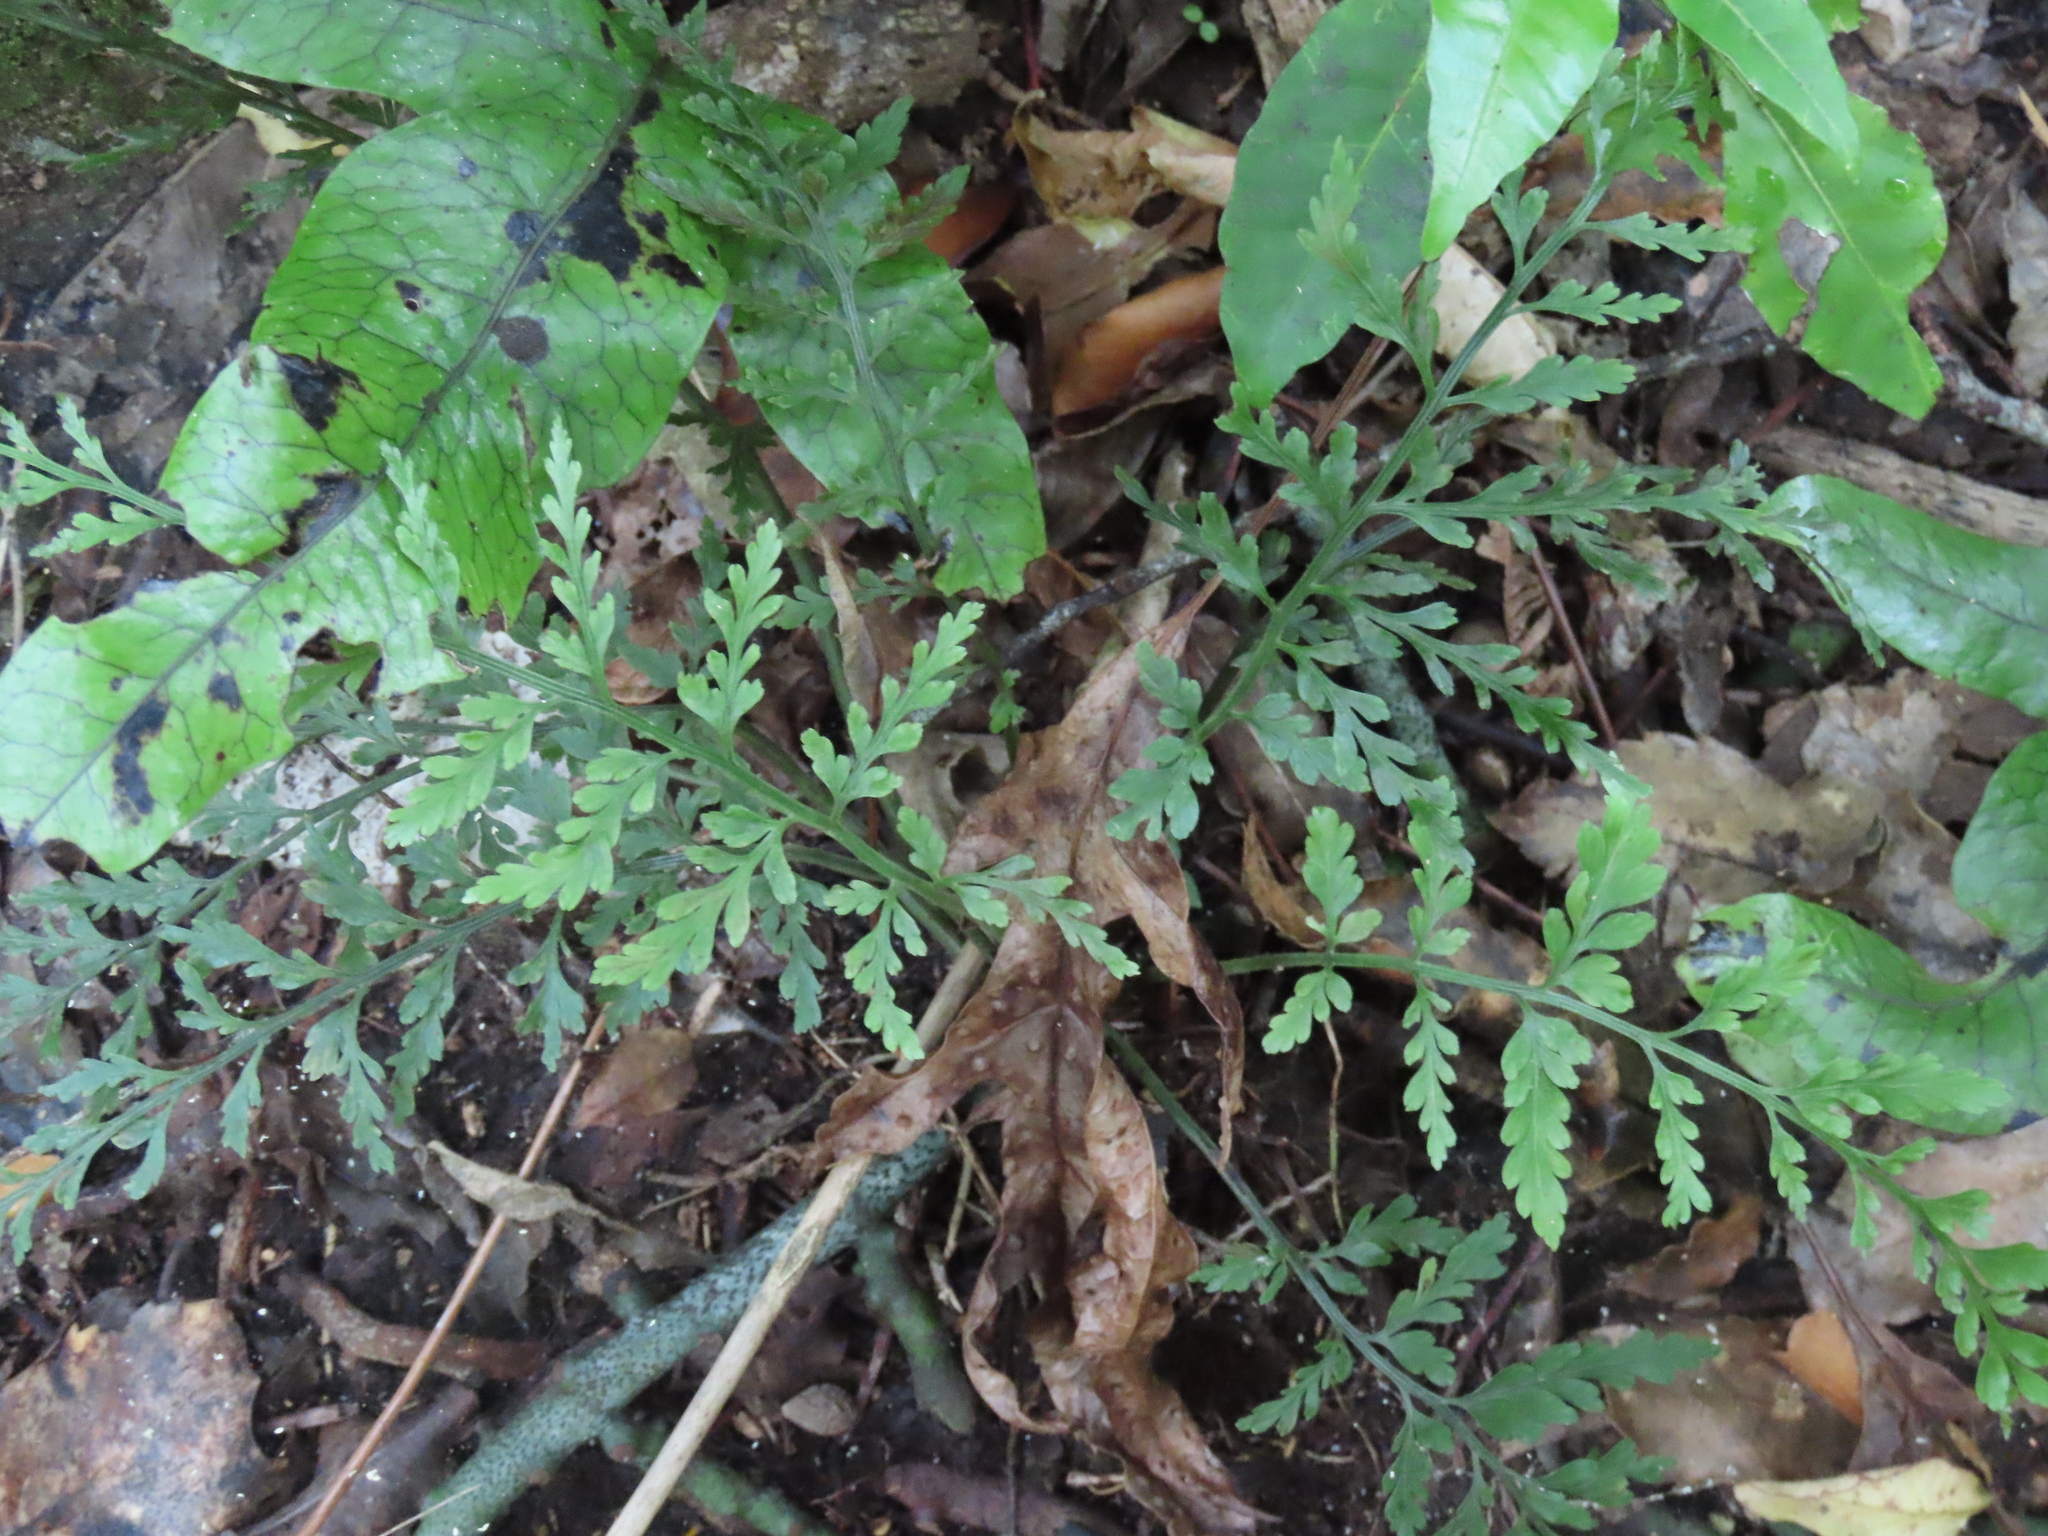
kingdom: Plantae
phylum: Tracheophyta
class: Polypodiopsida
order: Polypodiales
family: Aspleniaceae
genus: Asplenium
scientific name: Asplenium
